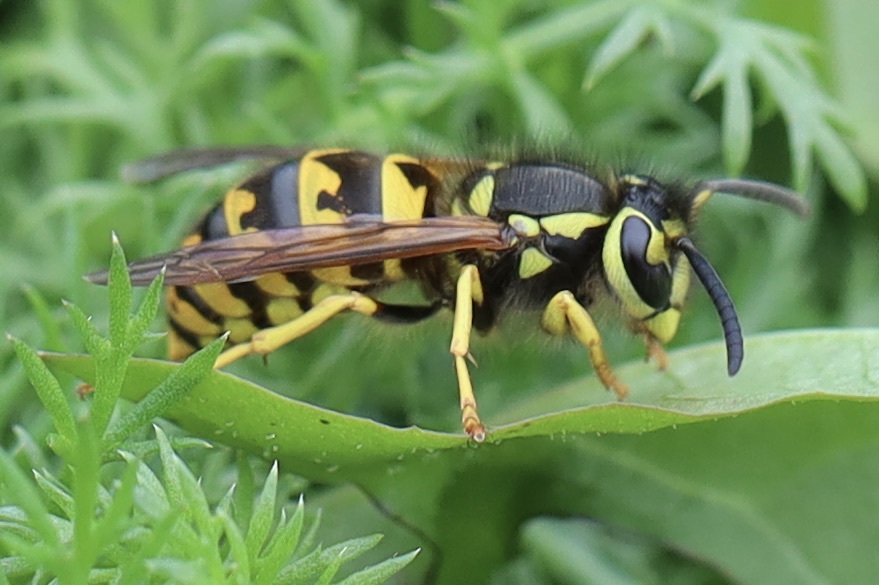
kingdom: Animalia
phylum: Arthropoda
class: Insecta
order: Hymenoptera
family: Vespidae
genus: Vespula
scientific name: Vespula pensylvanica
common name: Western yellowjacket
